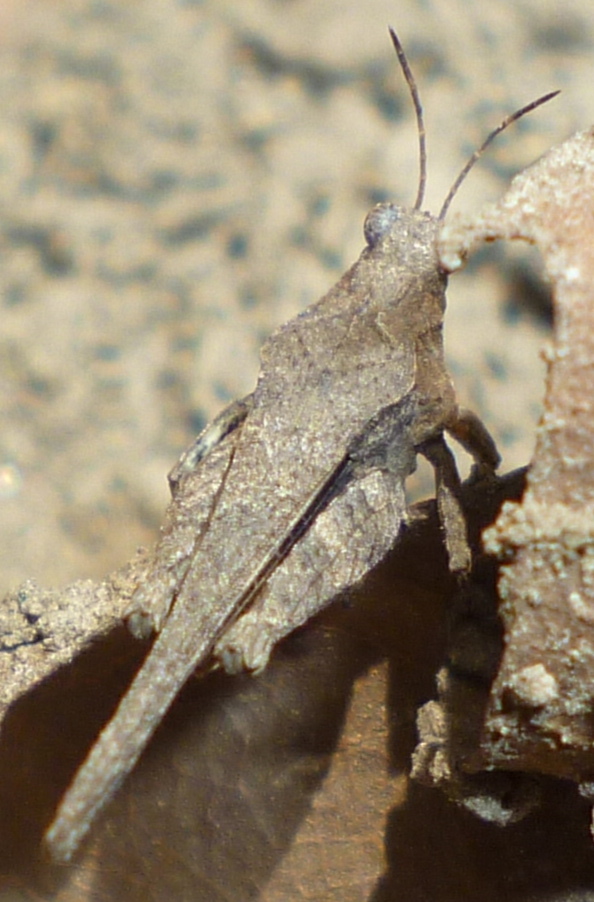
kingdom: Animalia
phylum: Arthropoda
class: Insecta
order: Orthoptera
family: Tetrigidae
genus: Tetrix
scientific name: Tetrix arenosa
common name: Ornate pygmy grasshopper
